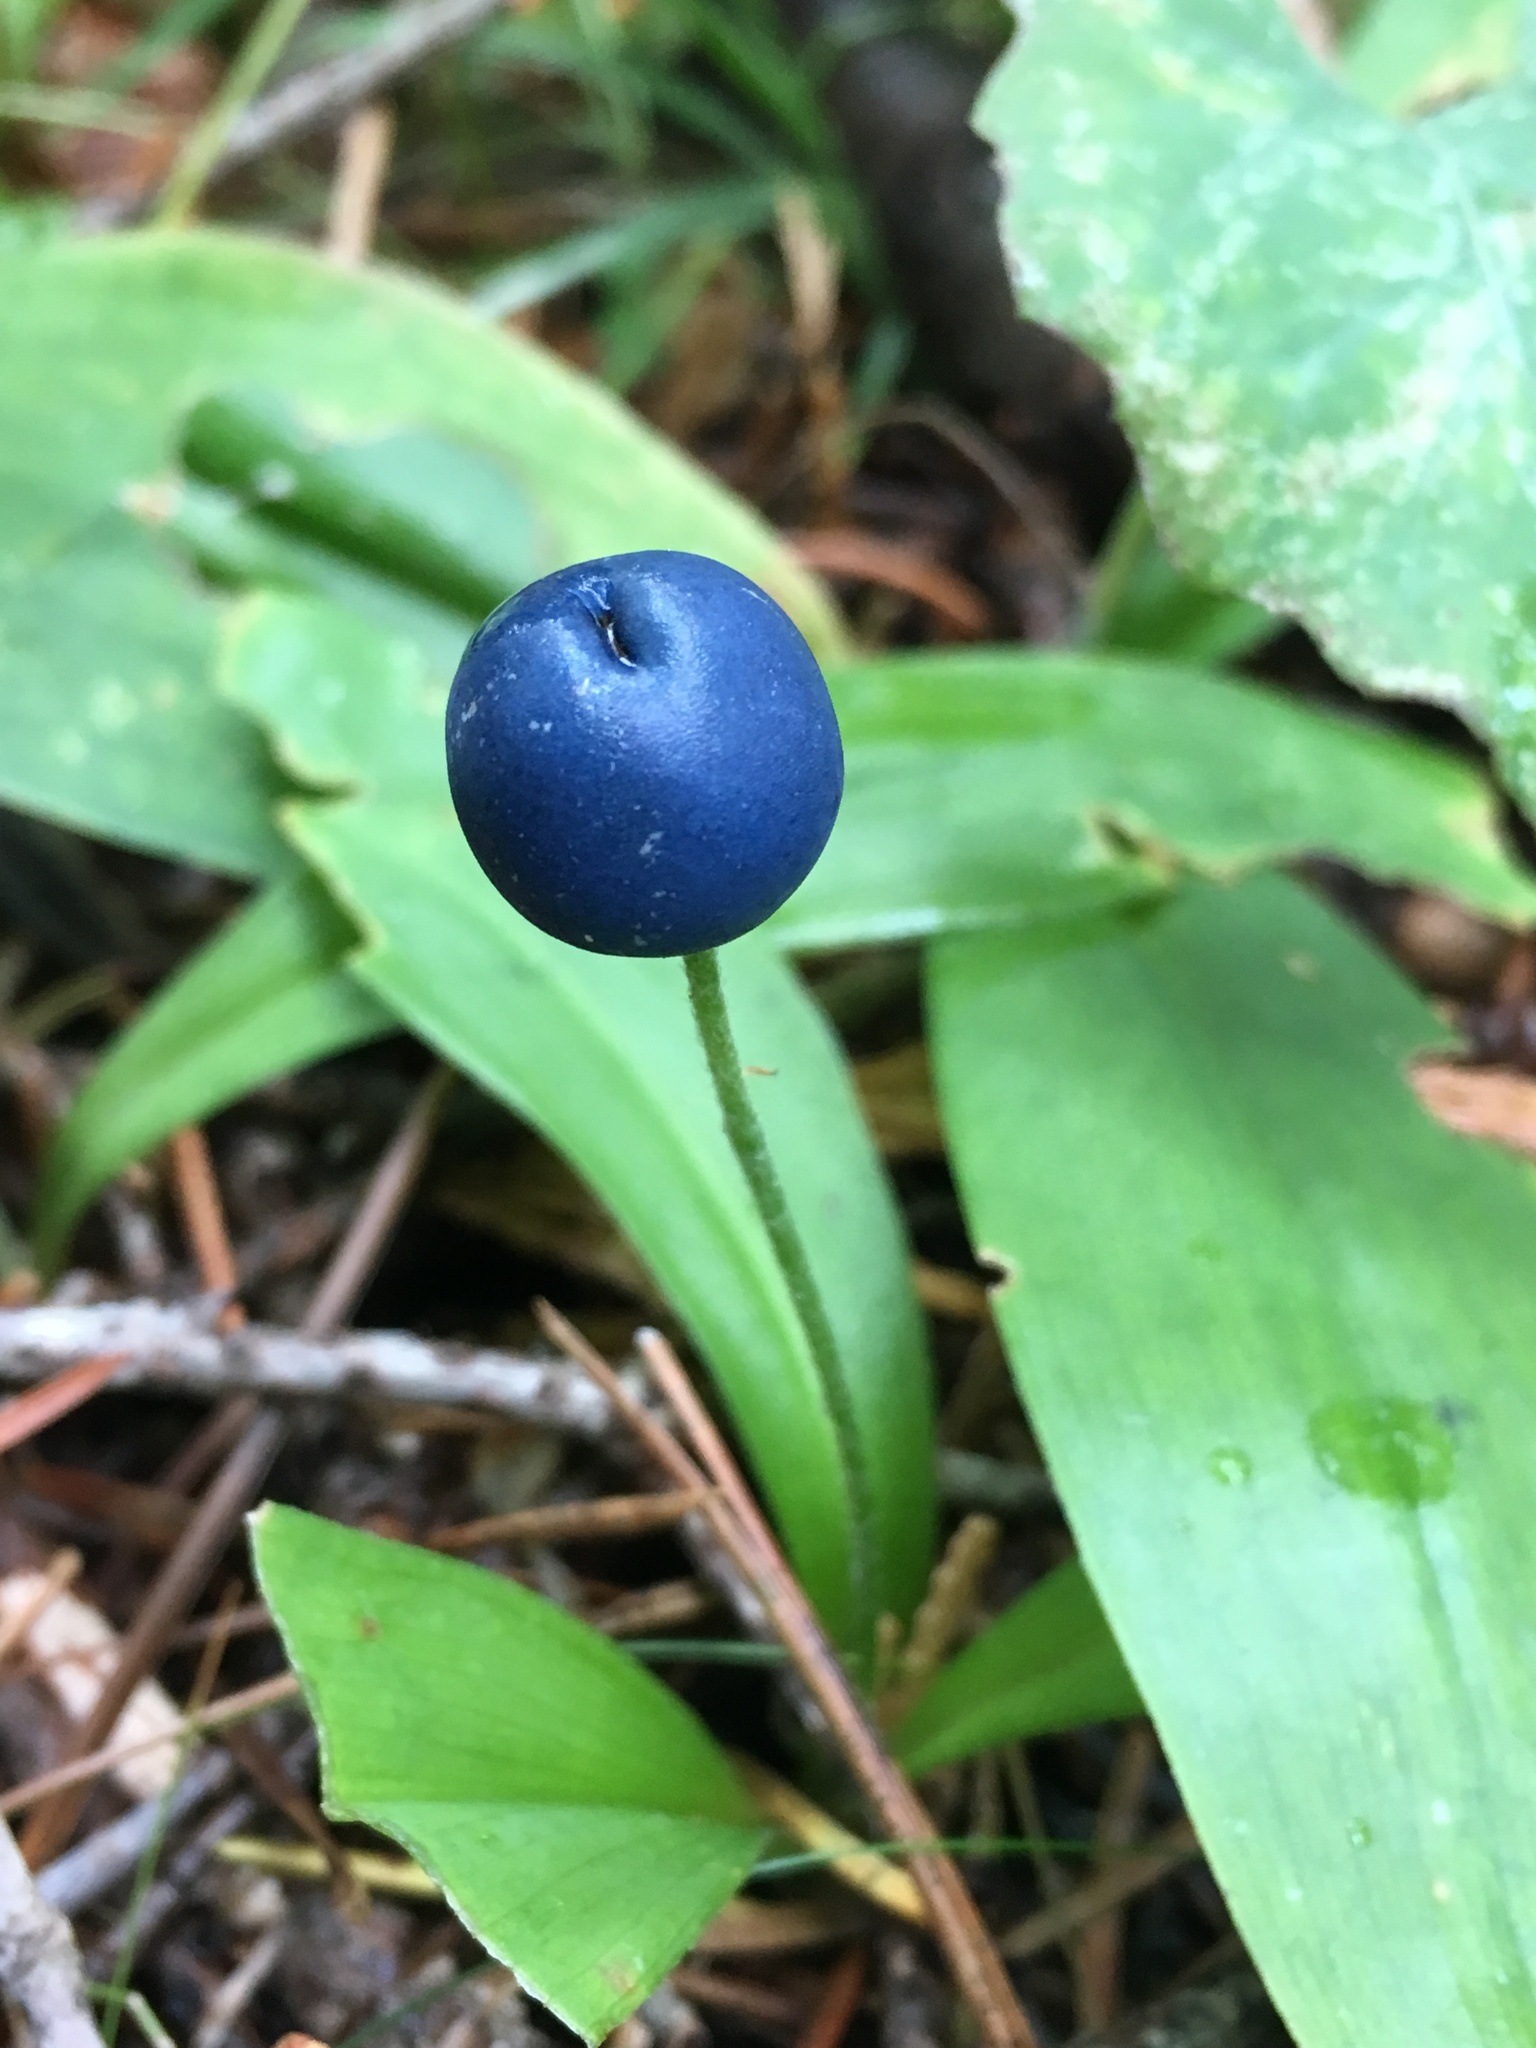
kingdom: Plantae
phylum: Tracheophyta
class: Liliopsida
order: Liliales
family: Liliaceae
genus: Clintonia
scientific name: Clintonia uniflora
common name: Queen's cup
